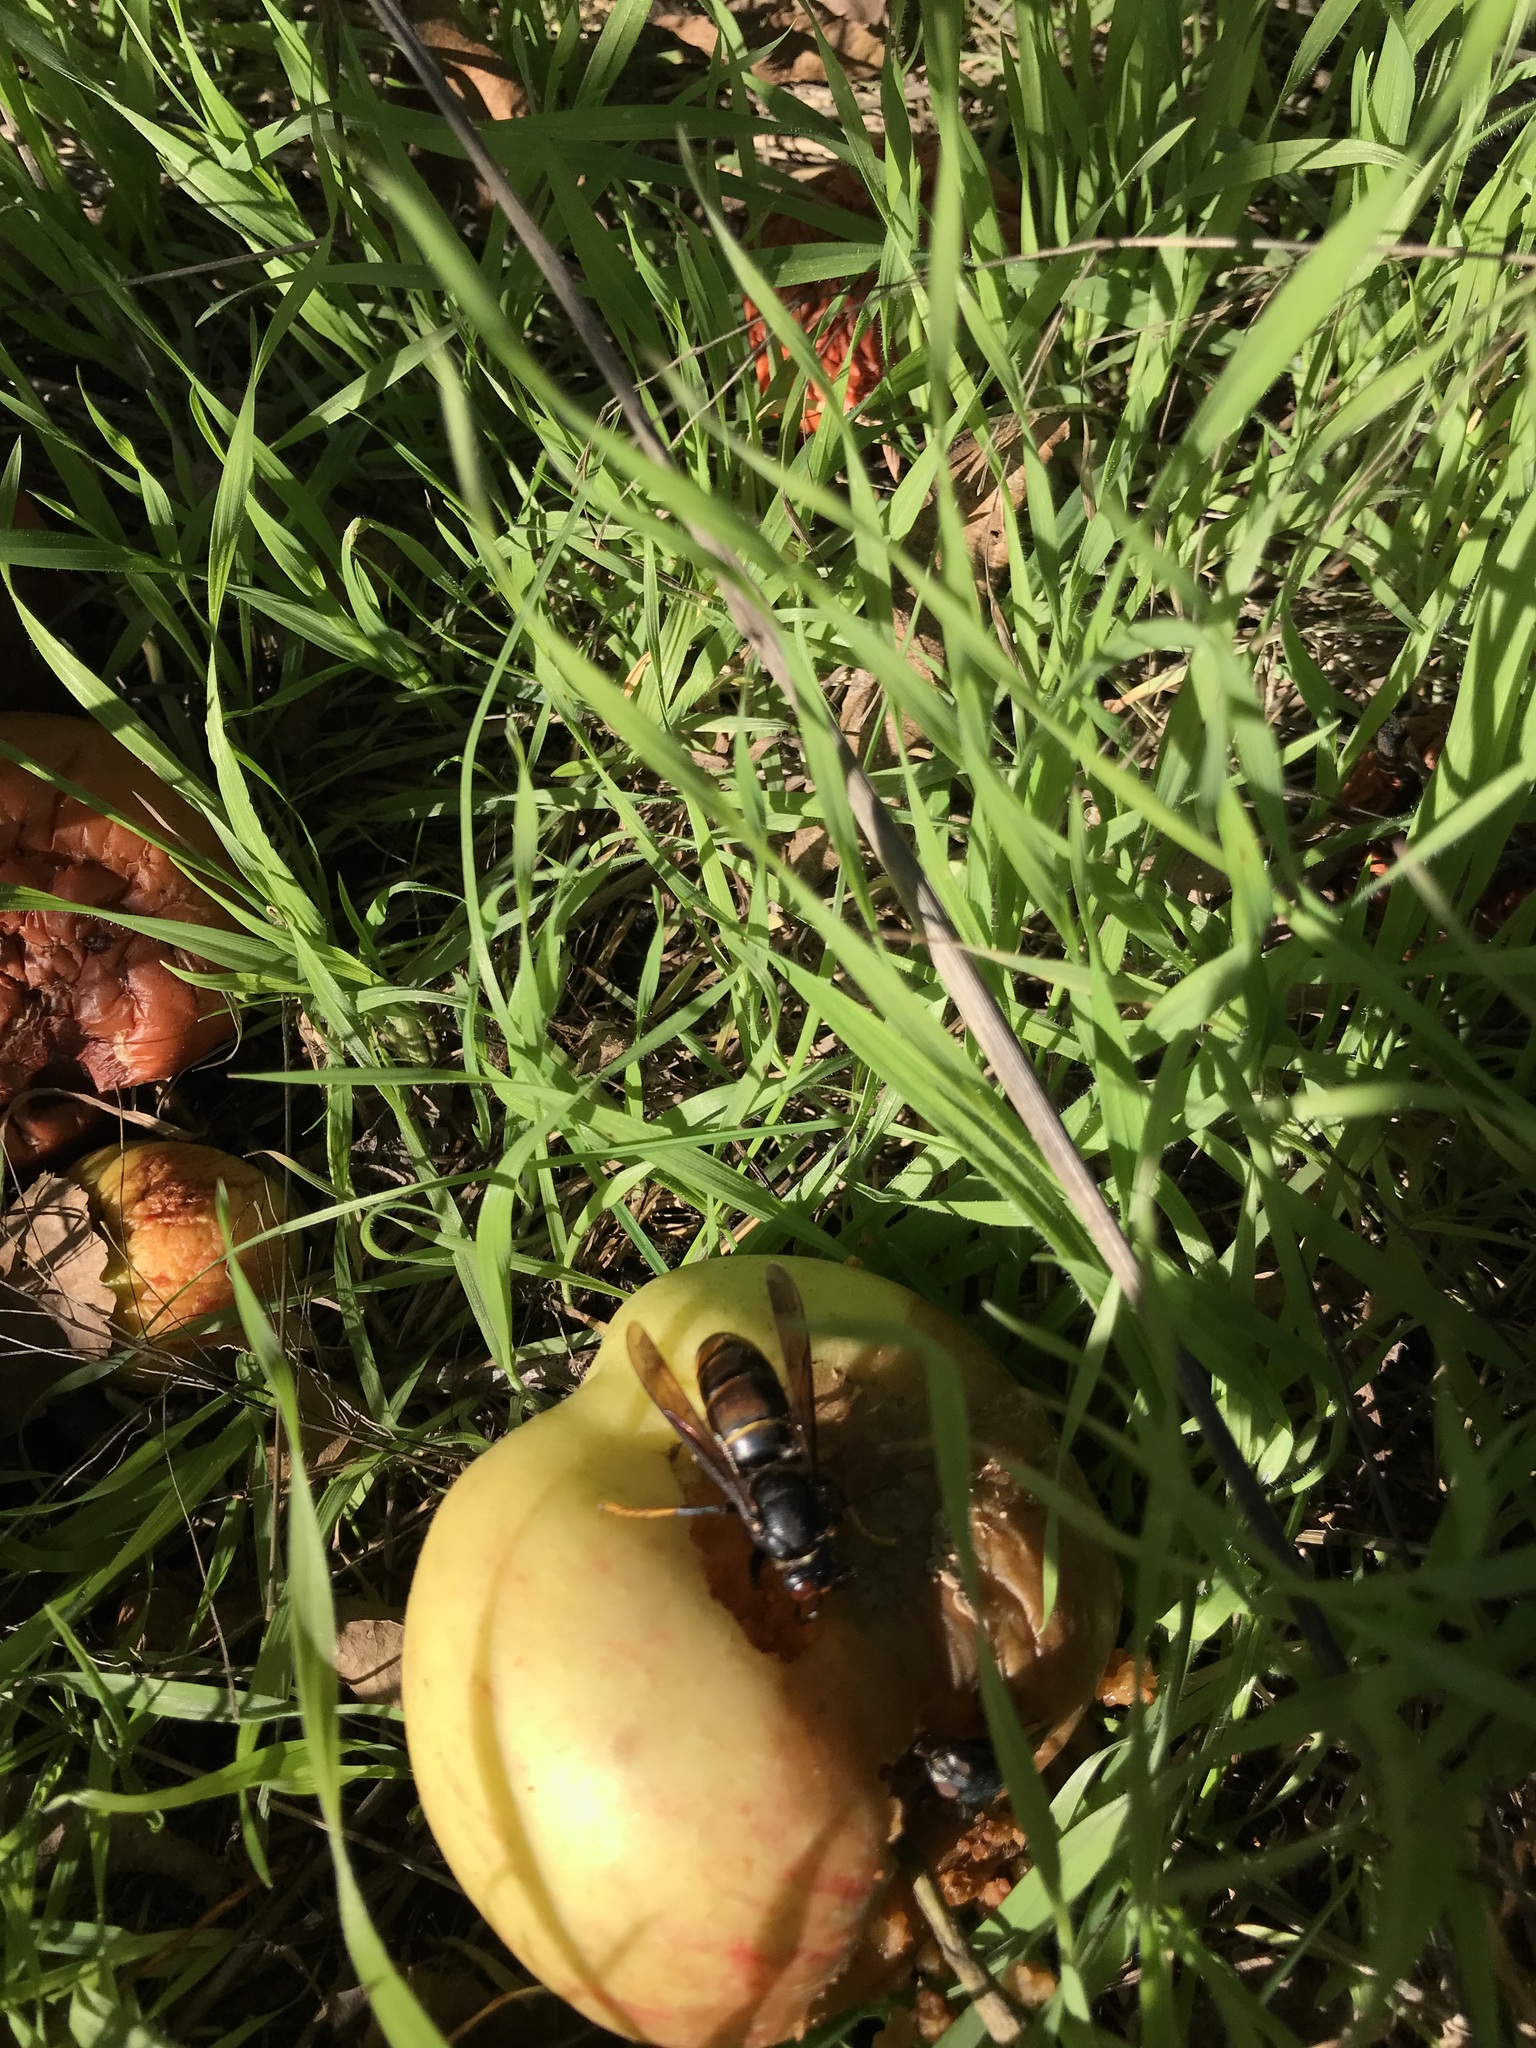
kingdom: Animalia
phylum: Arthropoda
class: Insecta
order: Hymenoptera
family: Vespidae
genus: Vespa
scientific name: Vespa velutina
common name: Asian hornet
